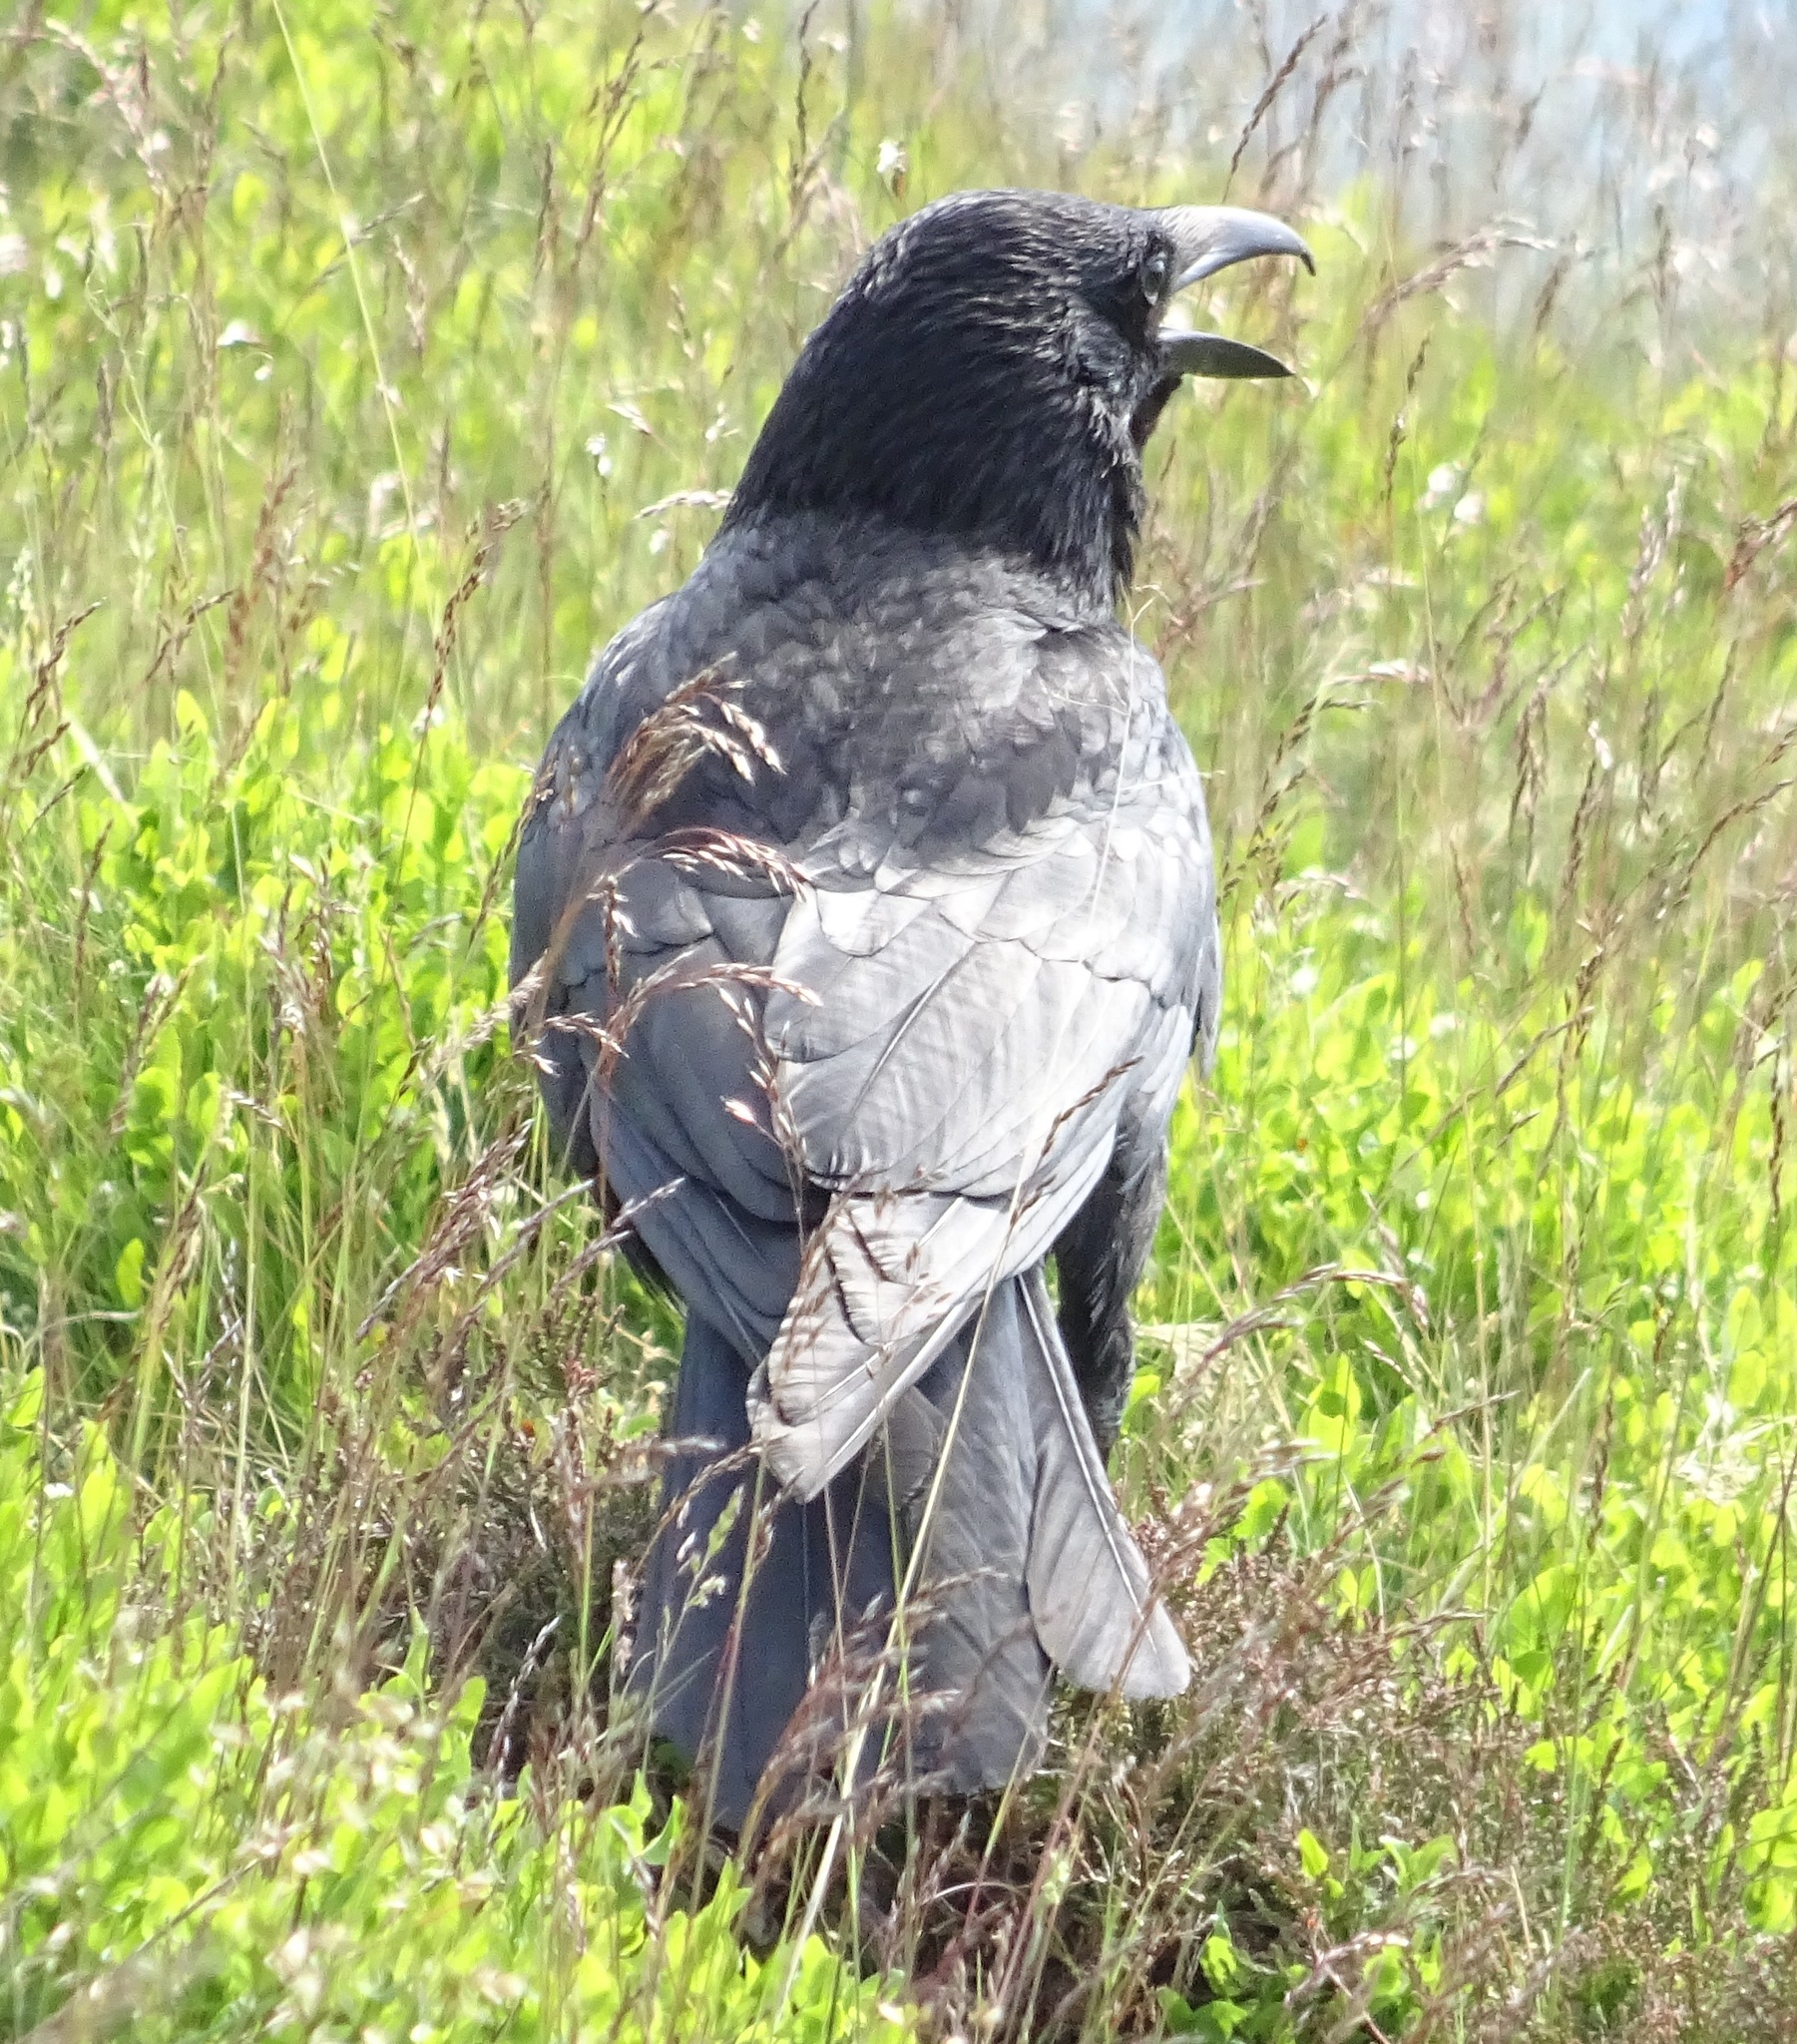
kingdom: Animalia
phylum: Chordata
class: Aves
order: Passeriformes
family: Corvidae
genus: Corvus
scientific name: Corvus corax
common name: Common raven
